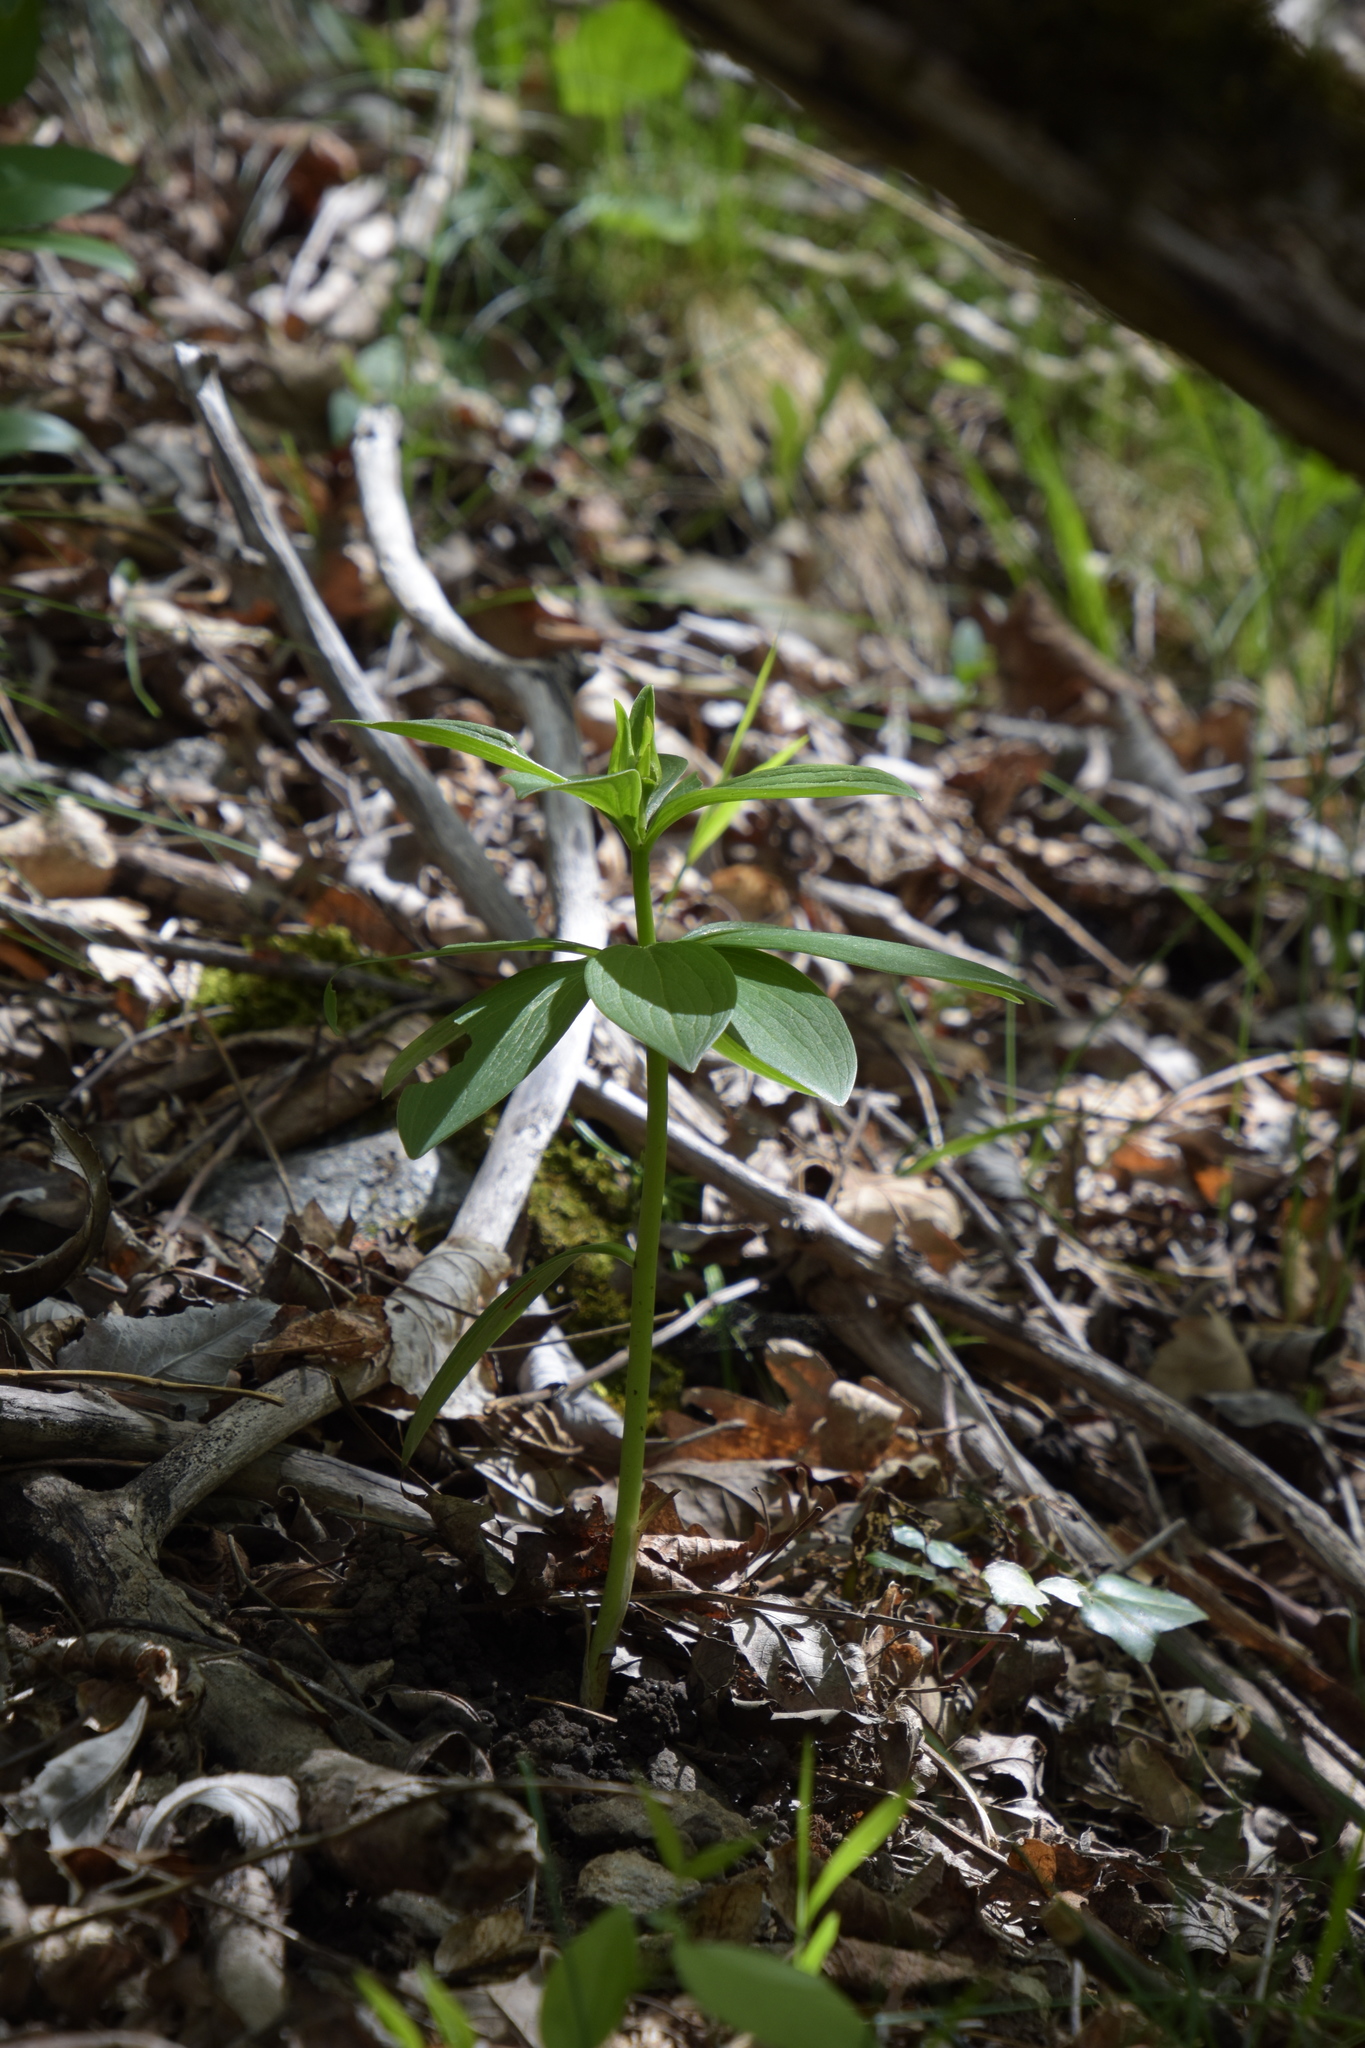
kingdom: Plantae
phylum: Tracheophyta
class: Liliopsida
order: Liliales
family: Liliaceae
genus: Lilium
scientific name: Lilium martagon
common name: Martagon lily
